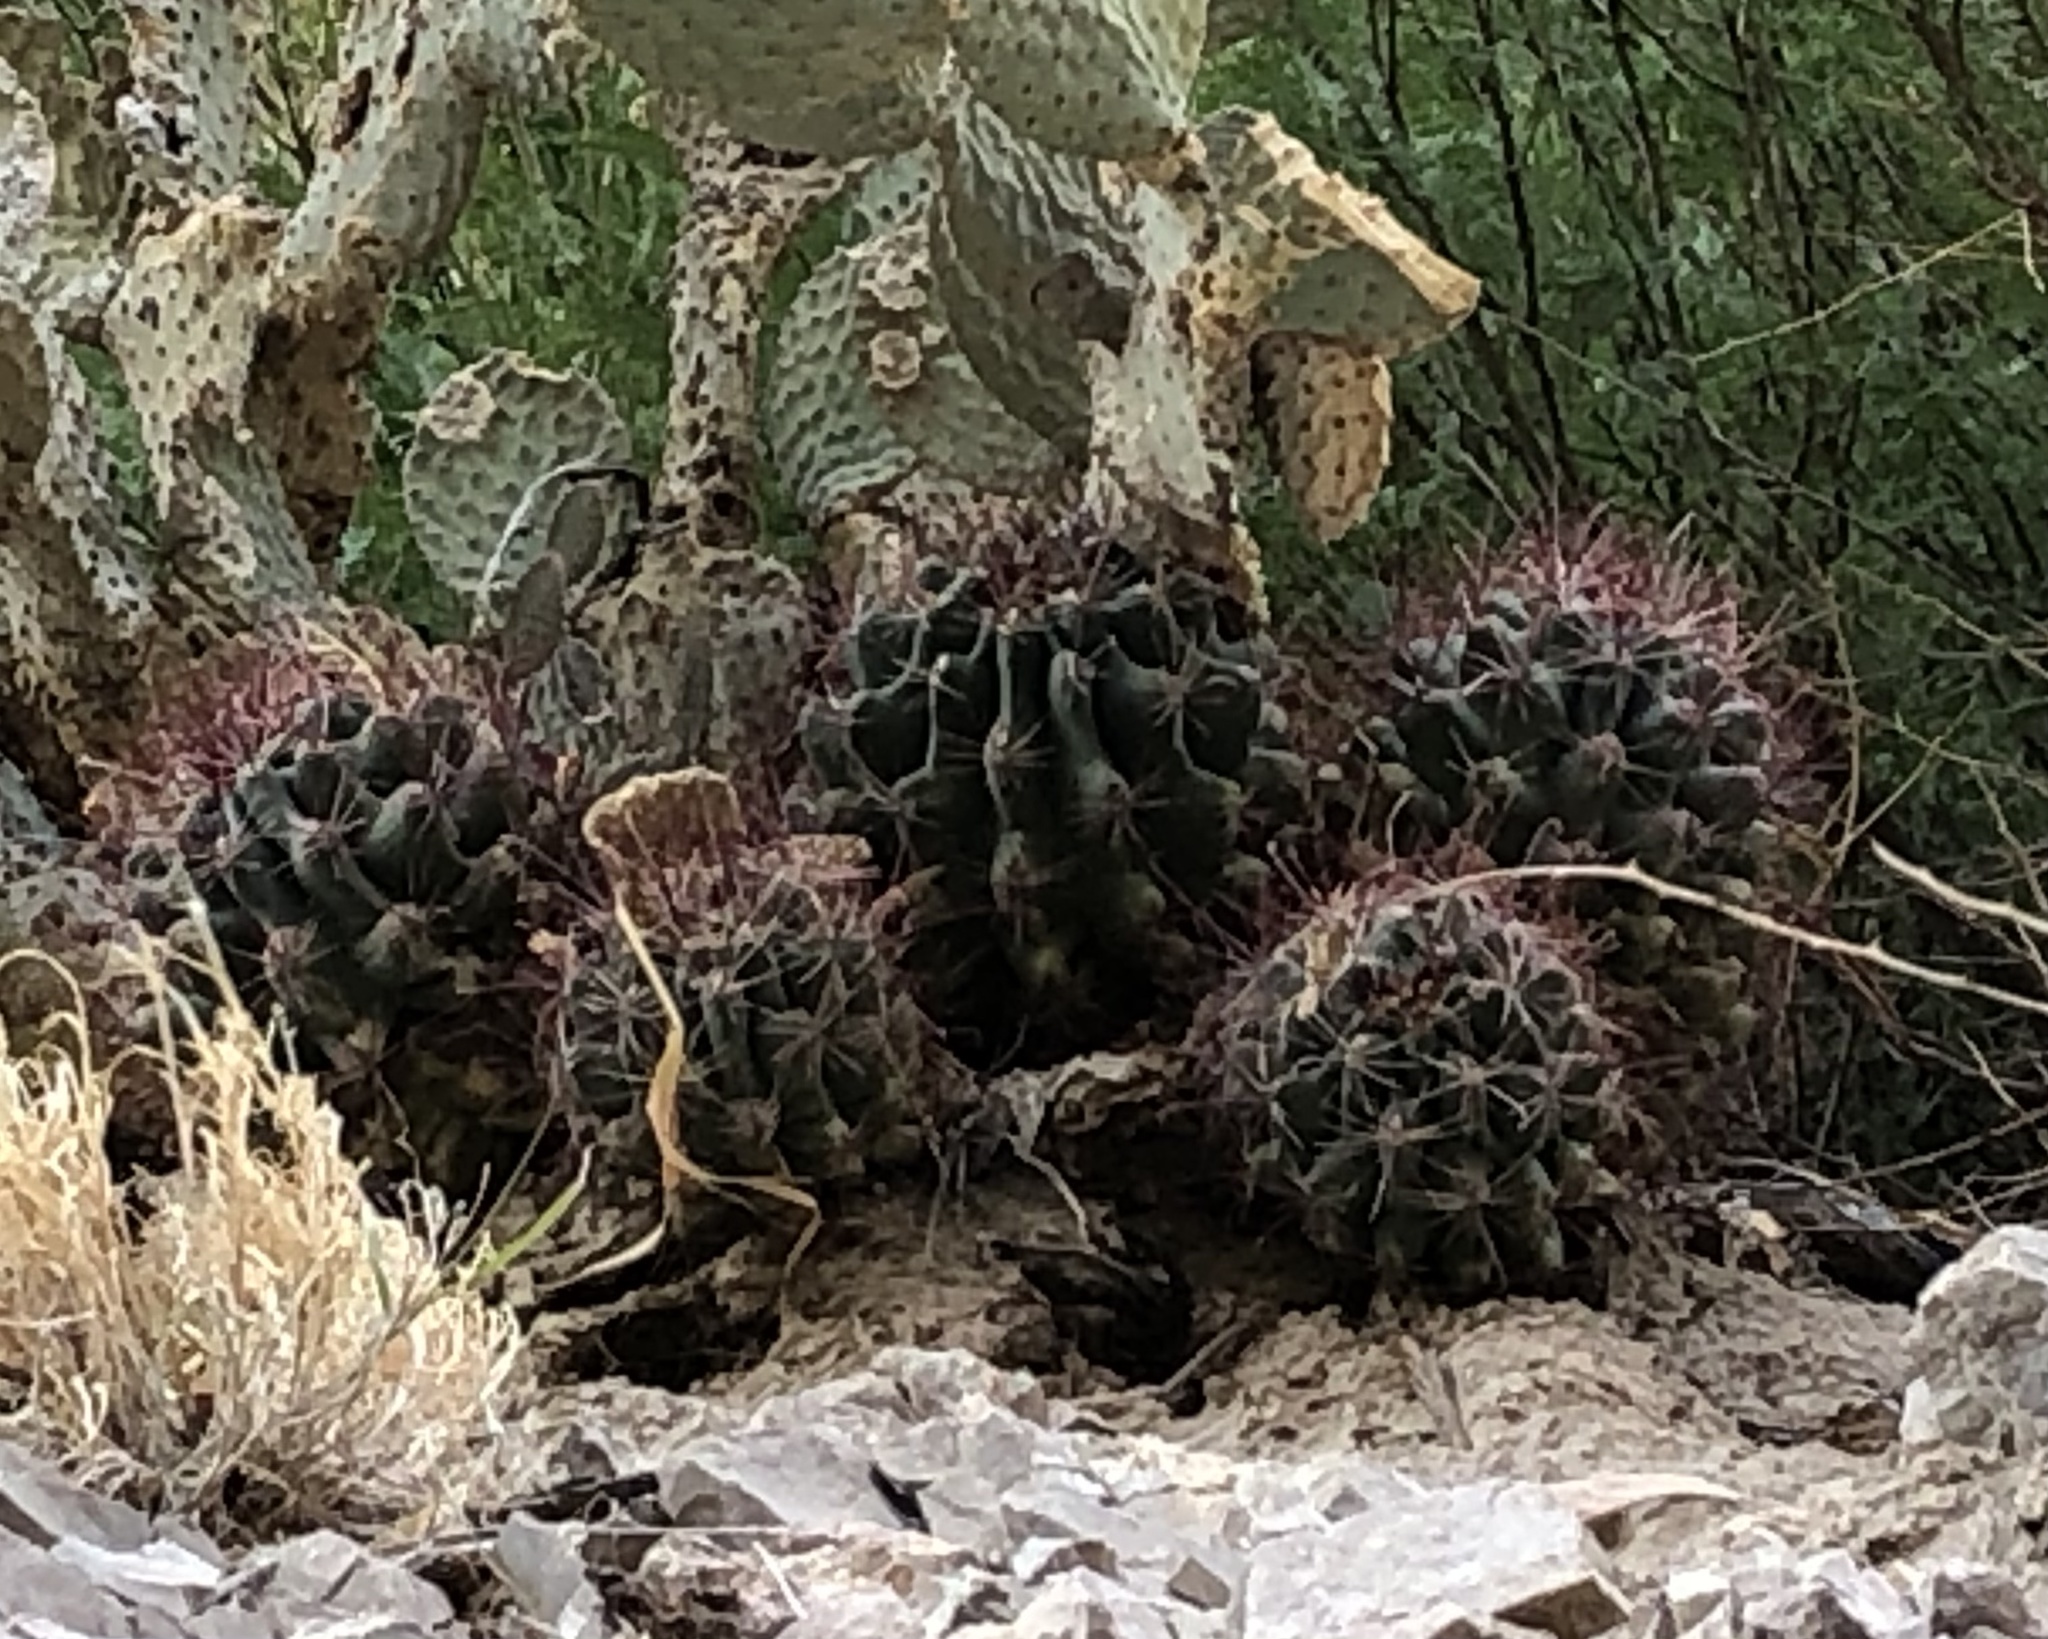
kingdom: Plantae
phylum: Tracheophyta
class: Magnoliopsida
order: Caryophyllales
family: Cactaceae
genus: Bisnaga
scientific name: Bisnaga hamatacantha
